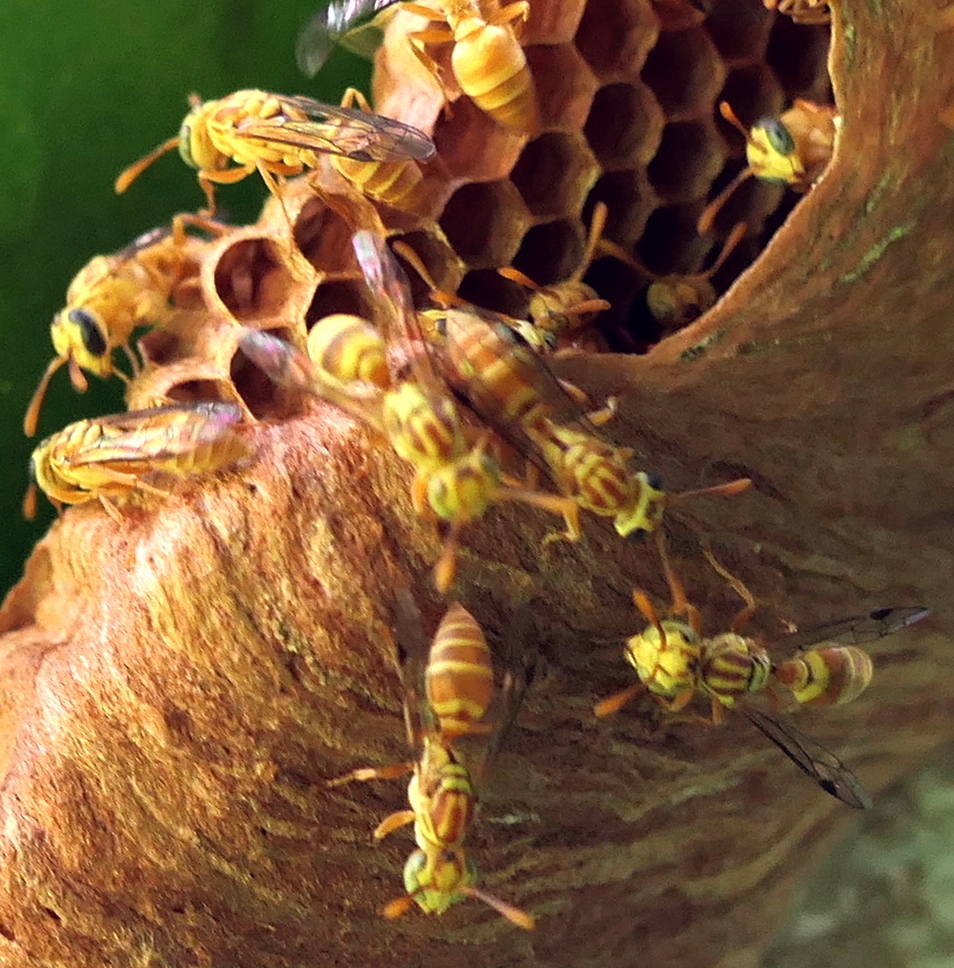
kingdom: Animalia
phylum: Arthropoda
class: Insecta
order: Hymenoptera
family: Vespidae
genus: Protopolybia
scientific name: Protopolybia potiguara
